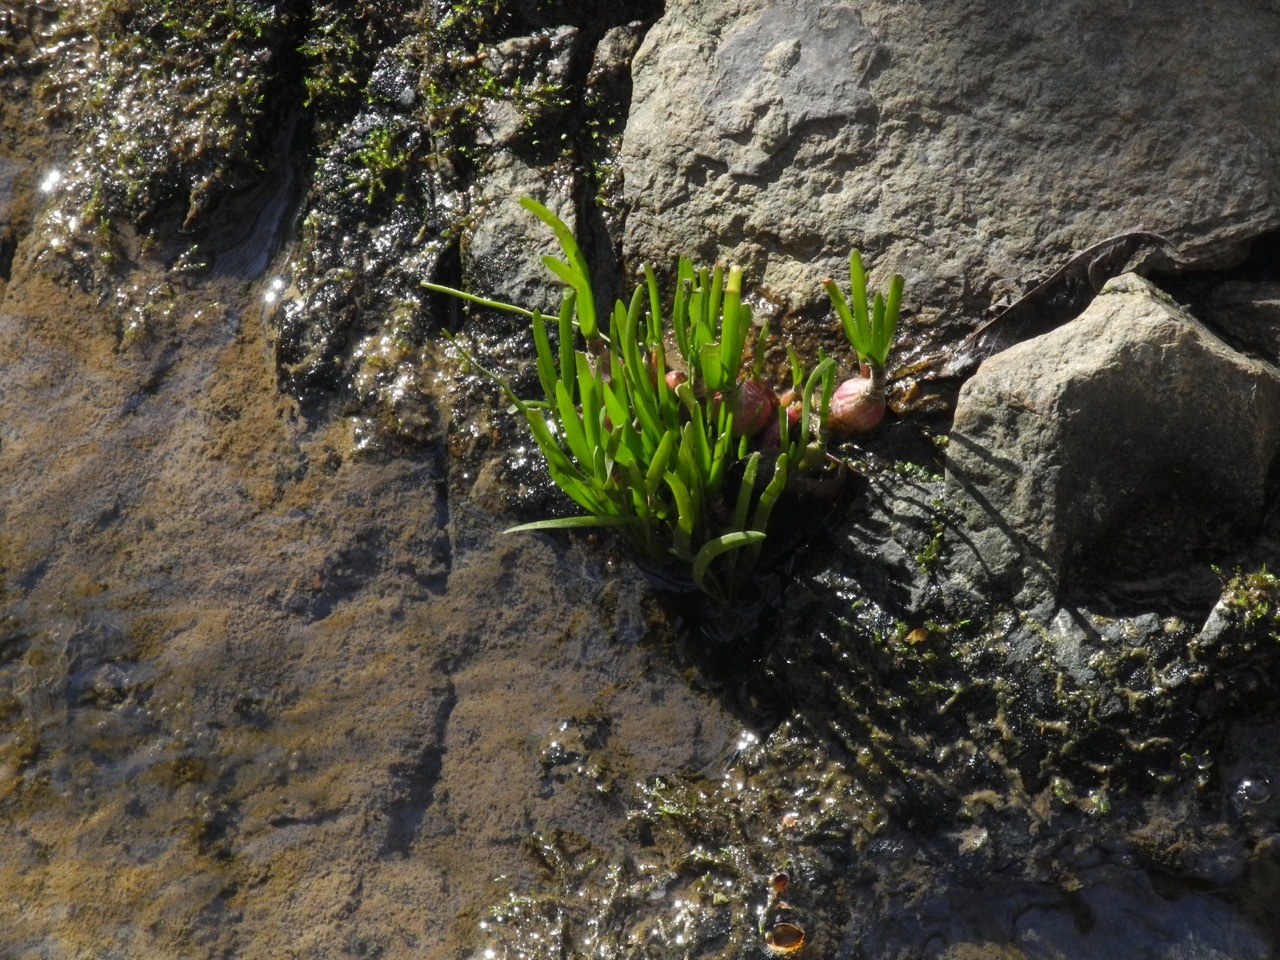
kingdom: Plantae
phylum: Tracheophyta
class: Liliopsida
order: Asparagales
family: Amaryllidaceae
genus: Zephyranthes
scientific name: Zephyranthes atamasco
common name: Atamasco lily
